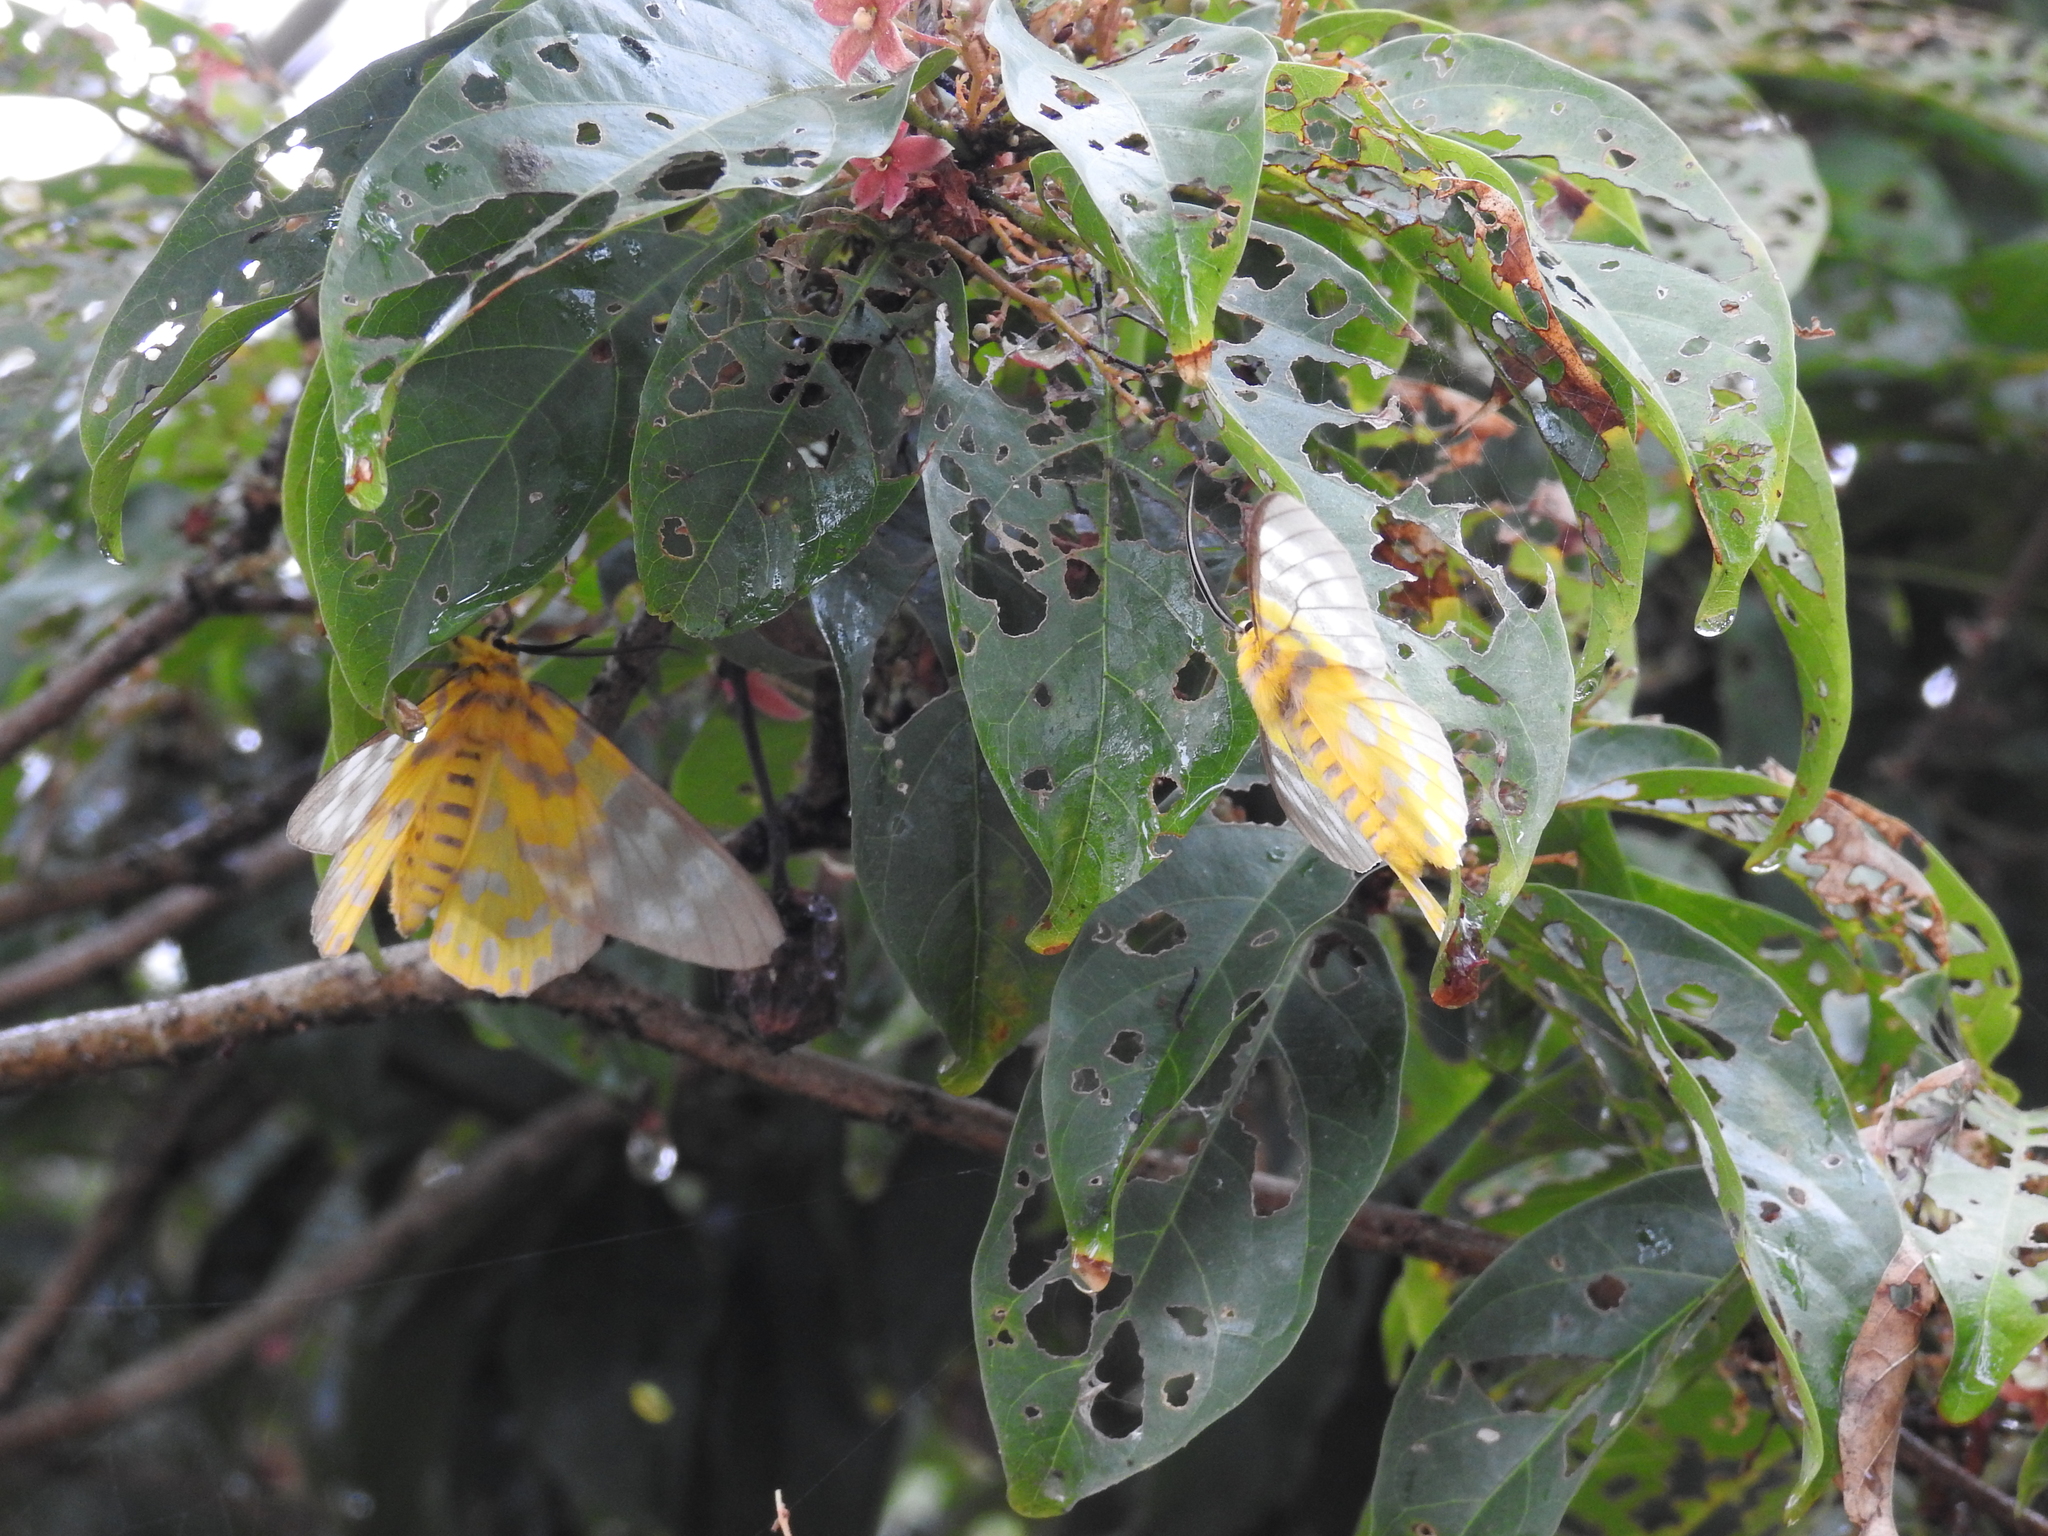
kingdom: Animalia
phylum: Arthropoda
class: Insecta
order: Lepidoptera
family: Geometridae
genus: Dysphania
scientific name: Dysphania militaris
